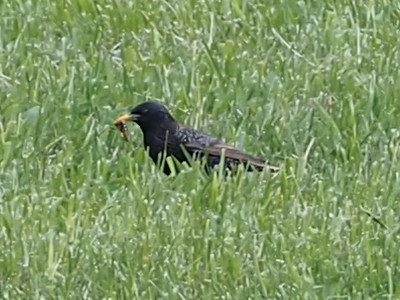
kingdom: Animalia
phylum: Chordata
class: Aves
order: Passeriformes
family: Sturnidae
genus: Sturnus
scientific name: Sturnus vulgaris
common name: Common starling
